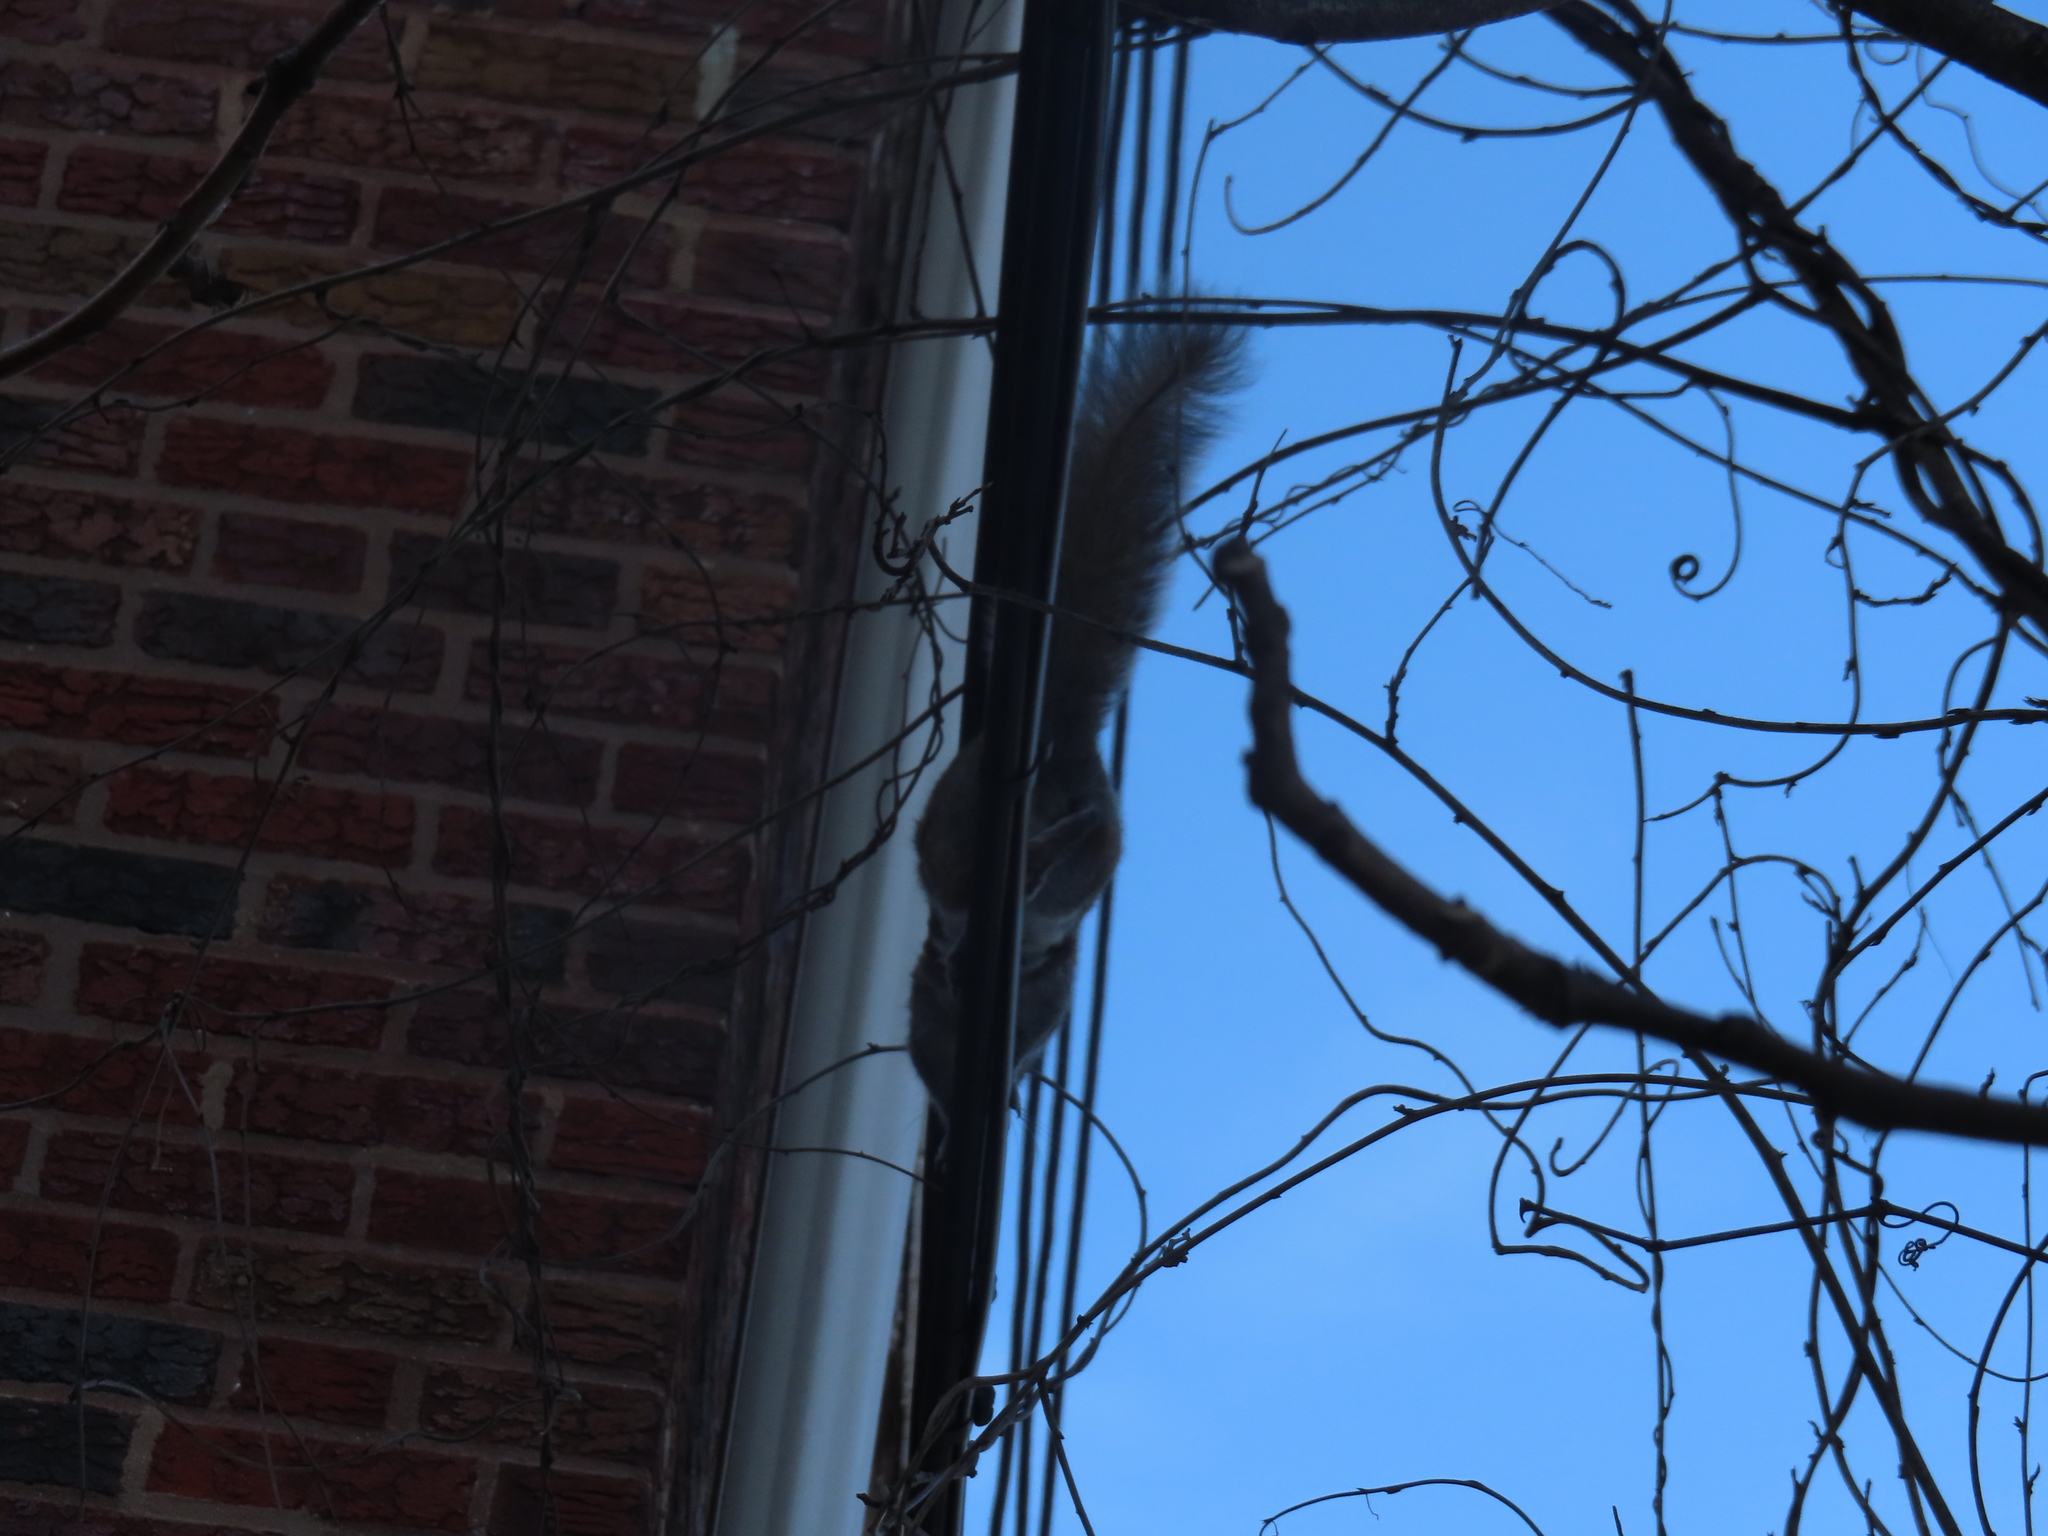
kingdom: Animalia
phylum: Chordata
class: Mammalia
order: Rodentia
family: Sciuridae
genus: Sciurus
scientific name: Sciurus carolinensis
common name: Eastern gray squirrel
